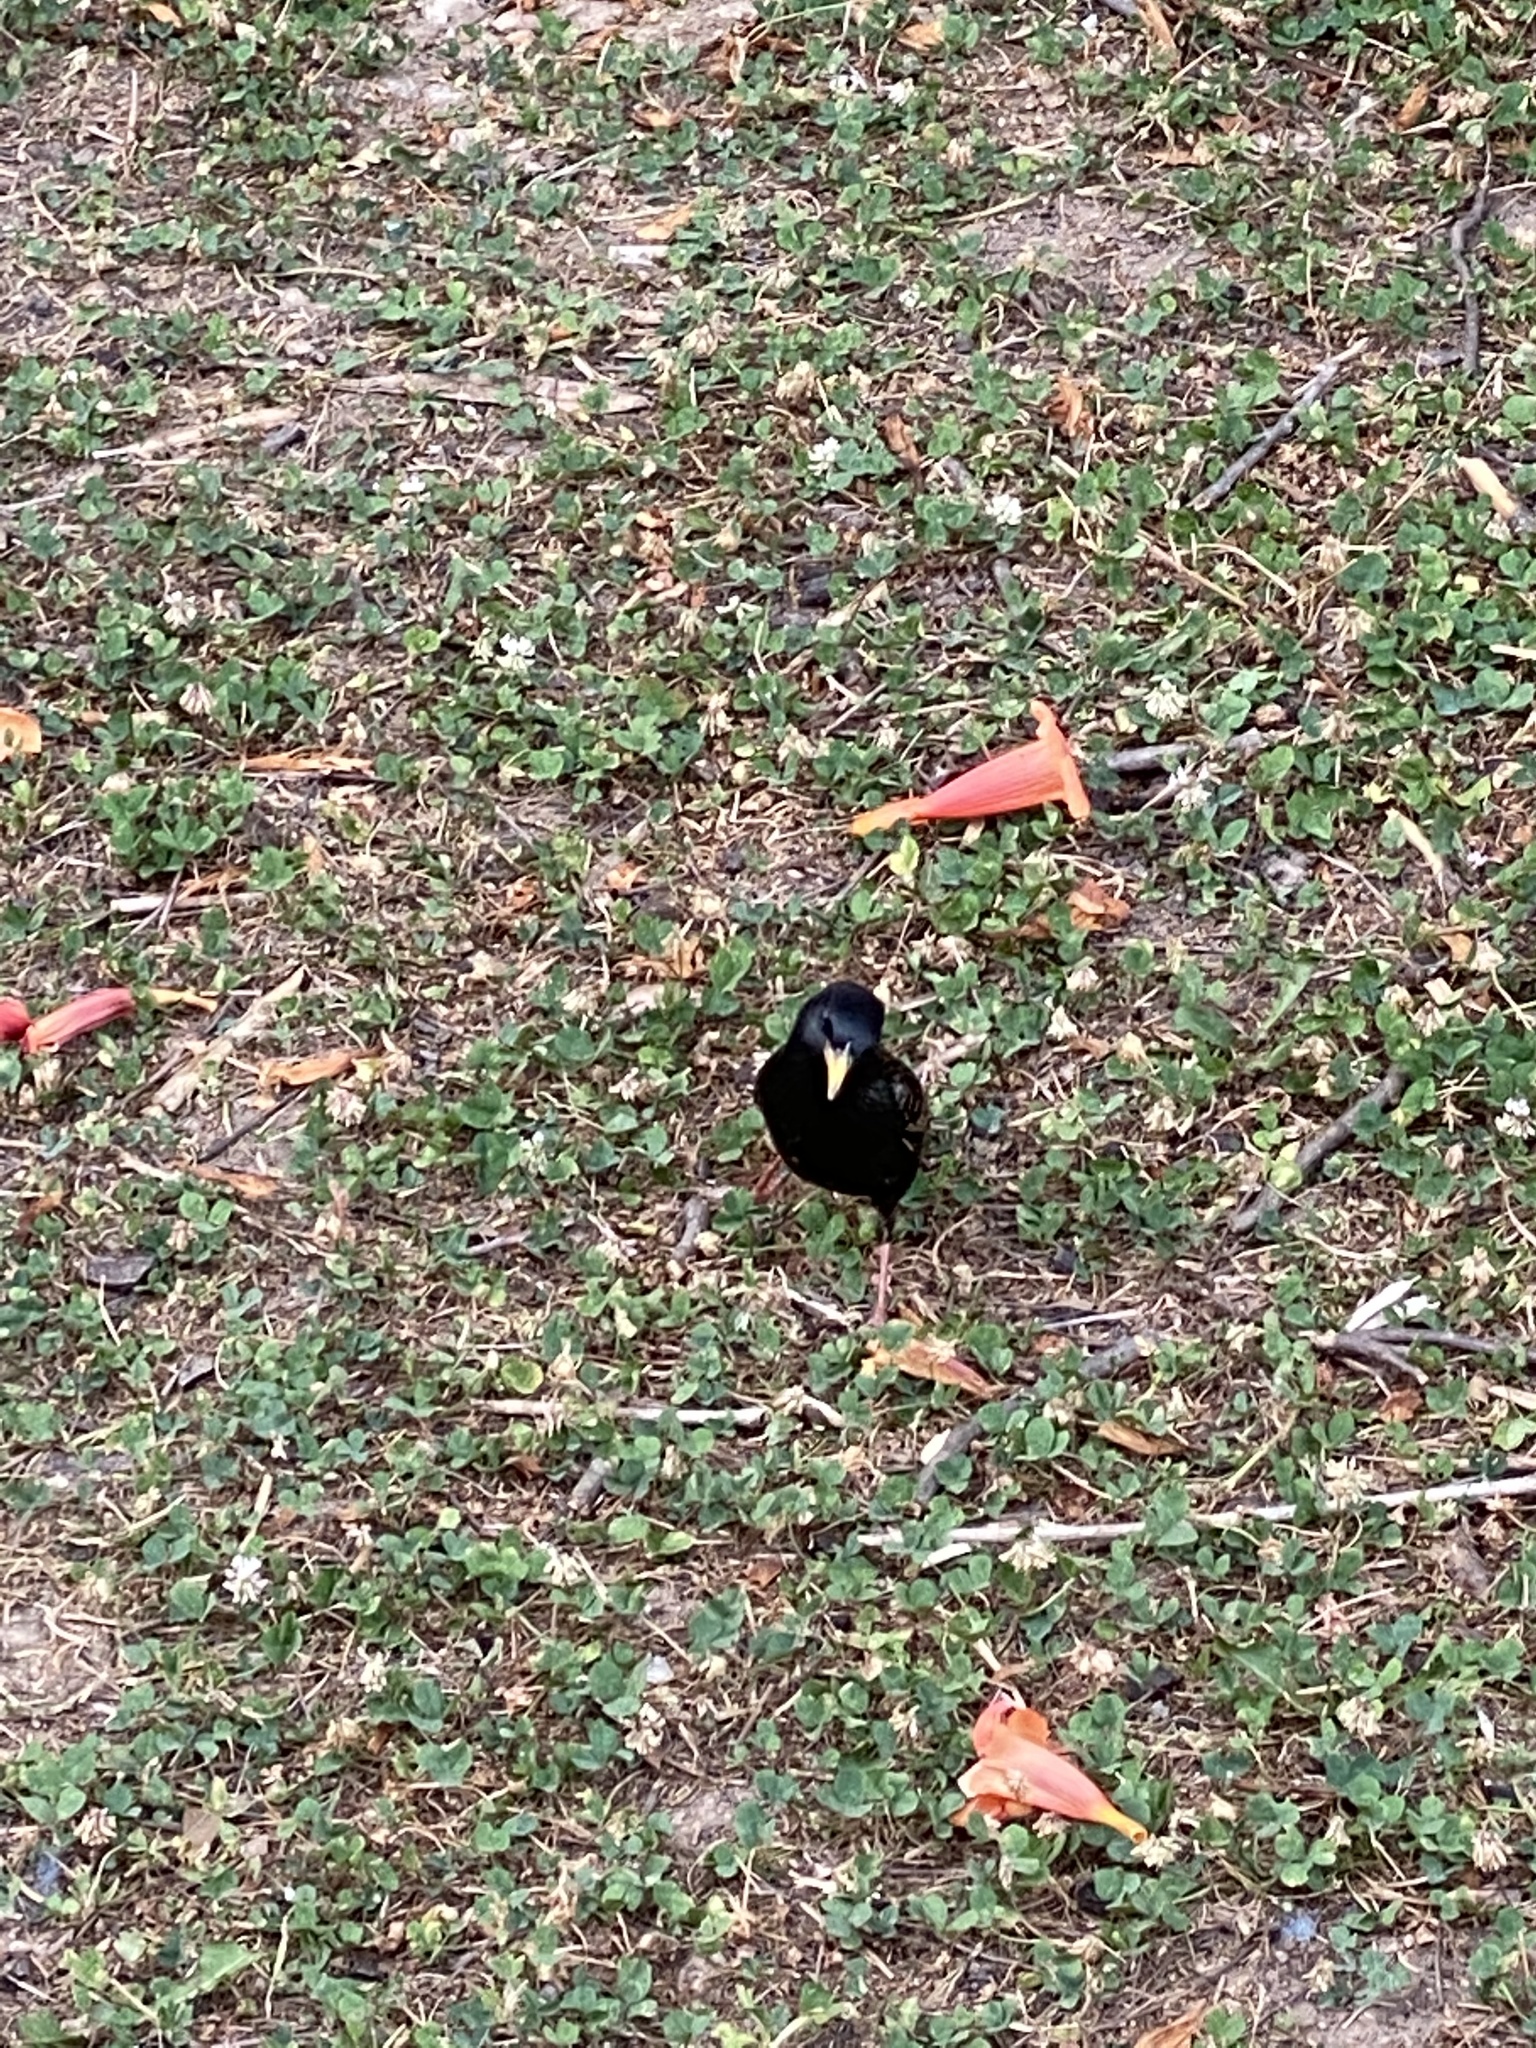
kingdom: Animalia
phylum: Chordata
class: Aves
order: Passeriformes
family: Sturnidae
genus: Sturnus
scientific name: Sturnus vulgaris
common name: Common starling
